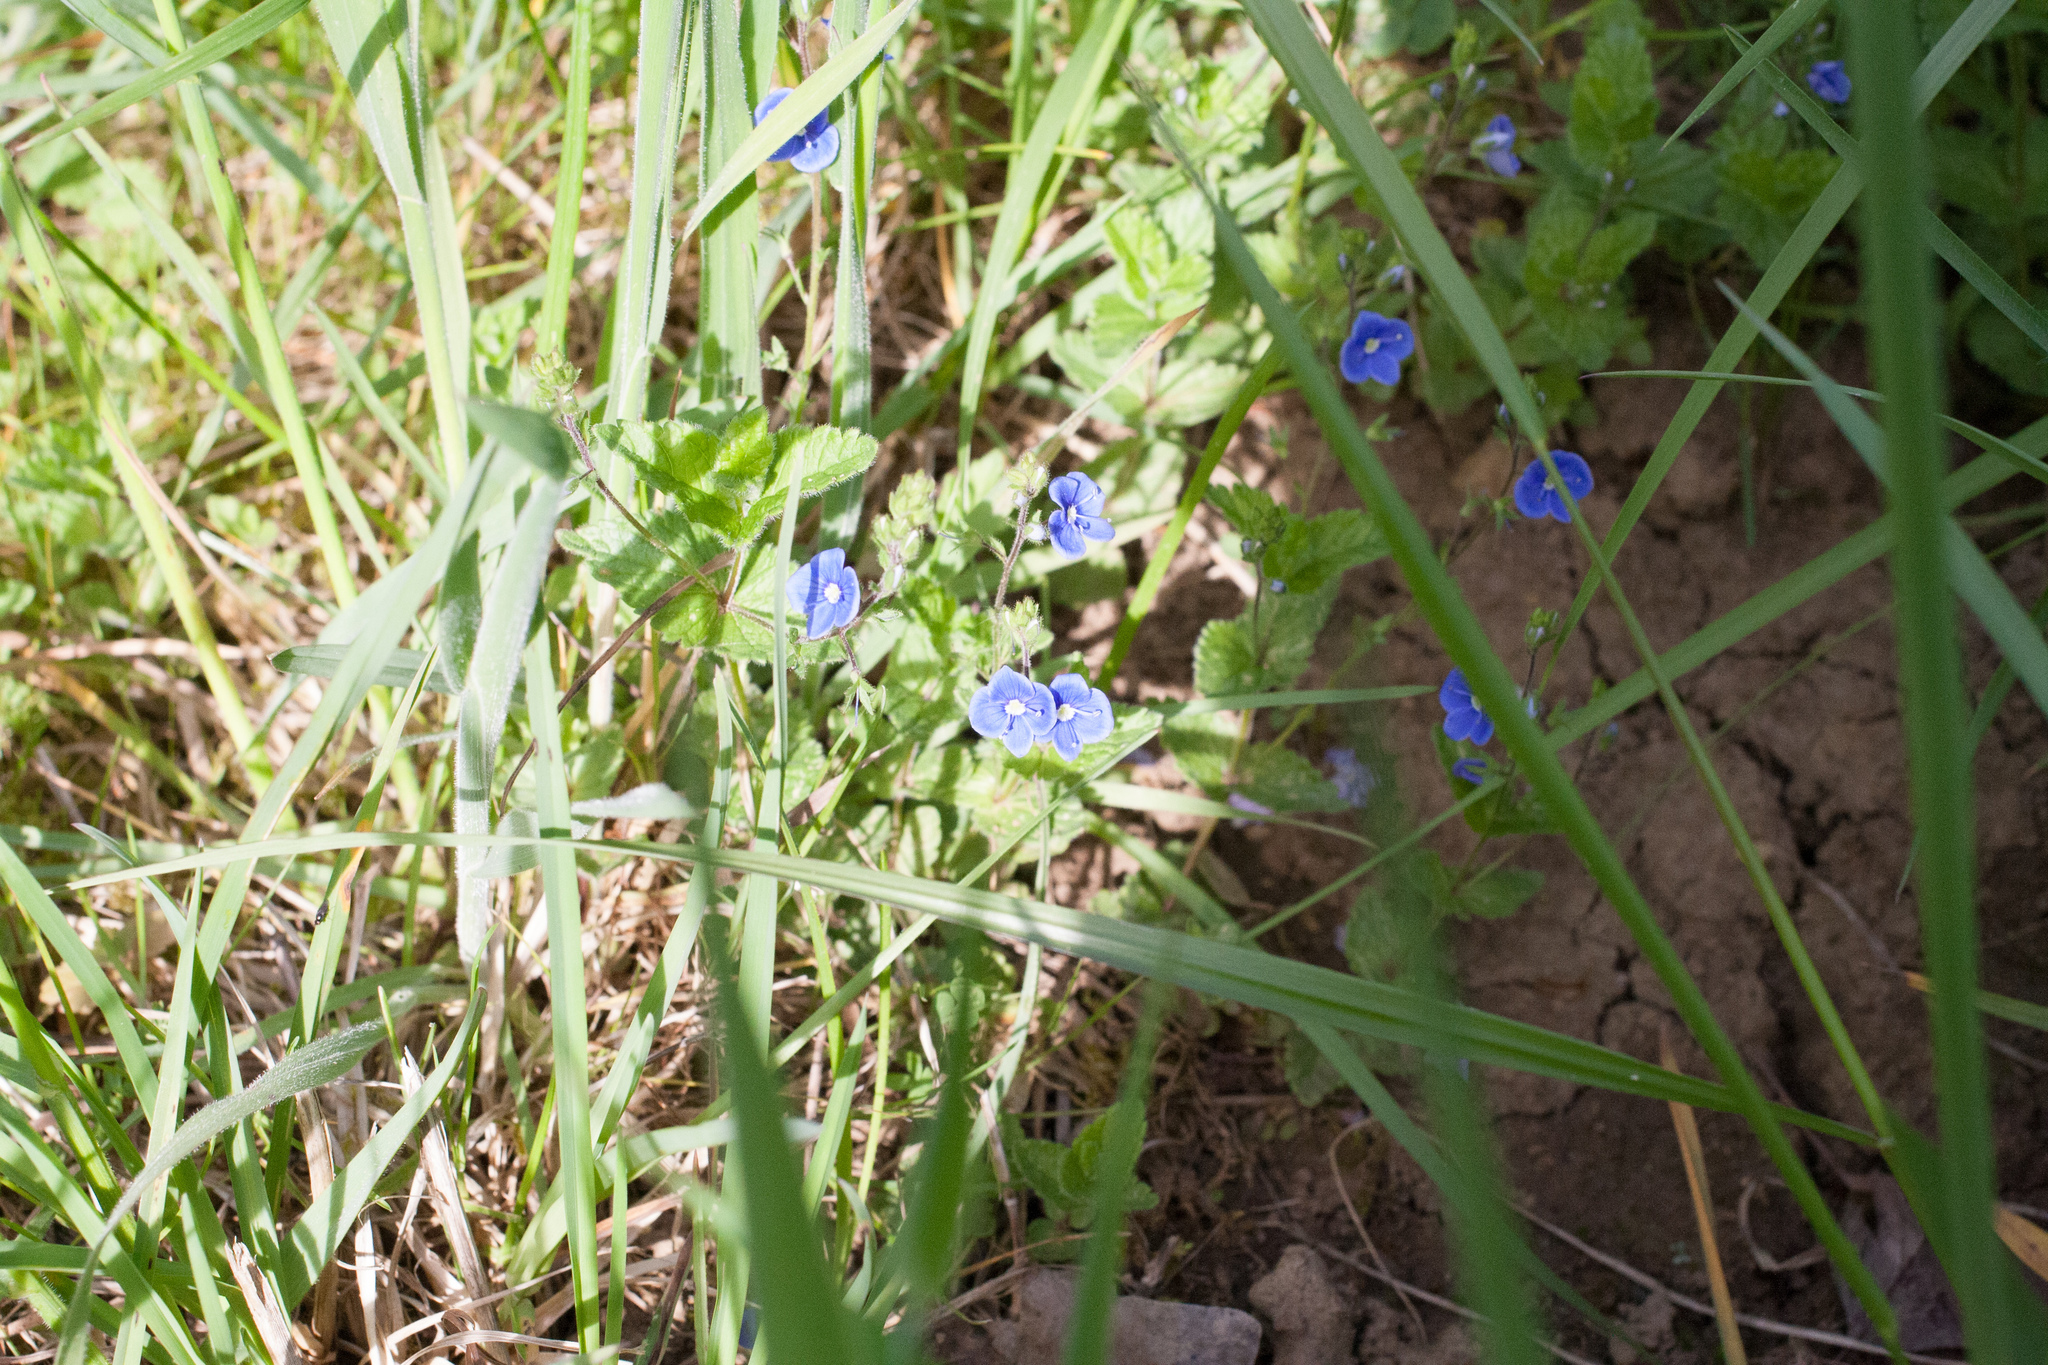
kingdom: Plantae
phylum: Tracheophyta
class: Magnoliopsida
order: Lamiales
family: Plantaginaceae
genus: Veronica
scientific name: Veronica chamaedrys
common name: Germander speedwell
